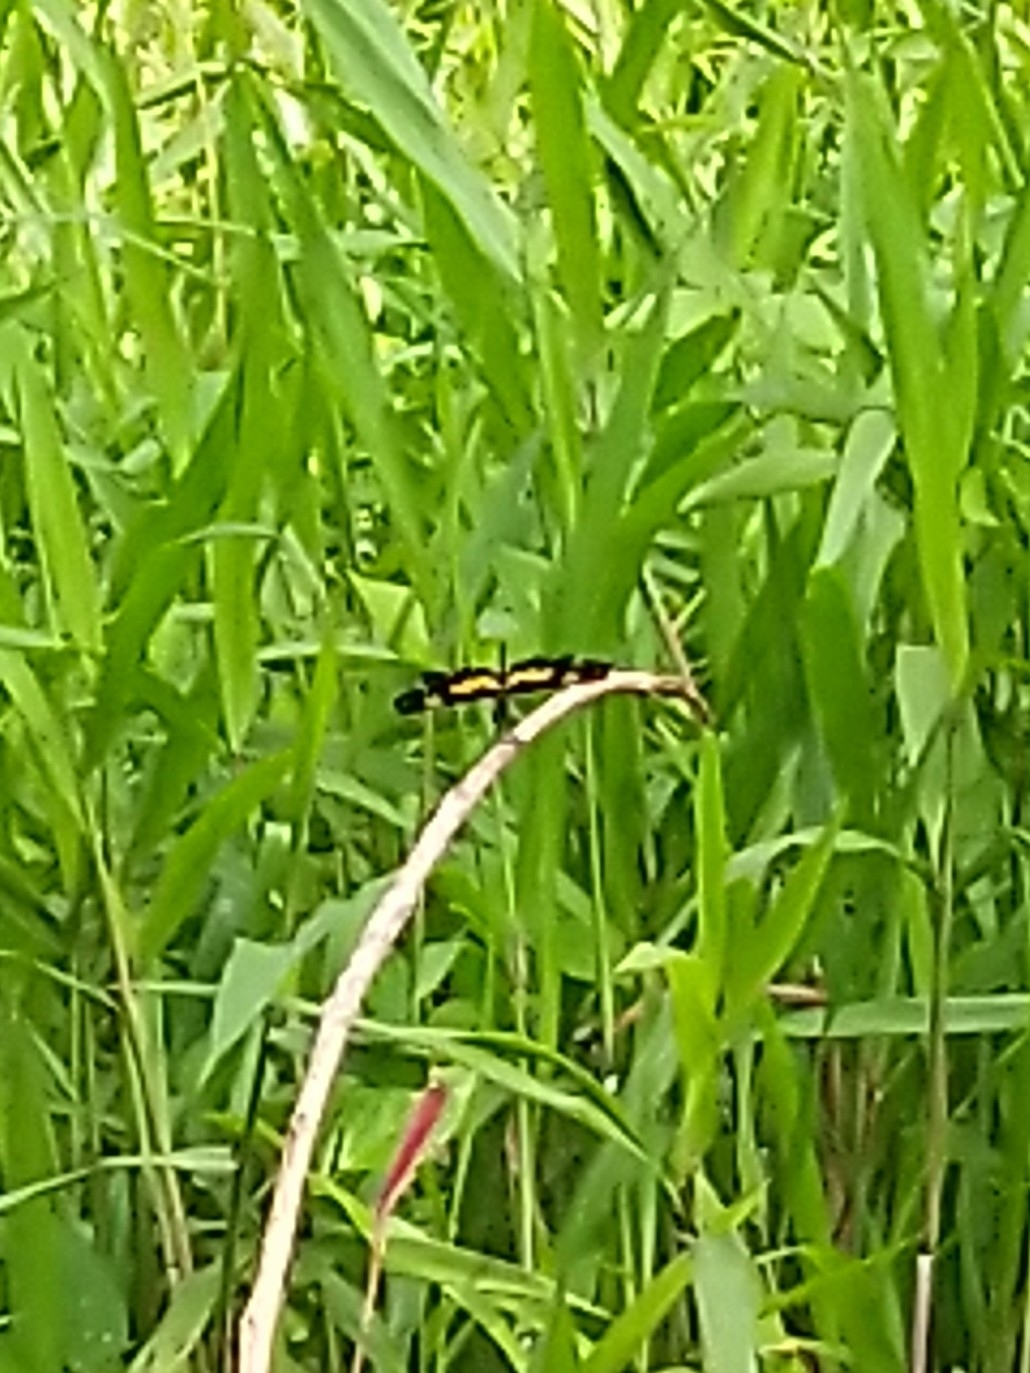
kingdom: Animalia
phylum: Arthropoda
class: Insecta
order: Odonata
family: Libellulidae
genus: Rhyothemis
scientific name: Rhyothemis variegata
